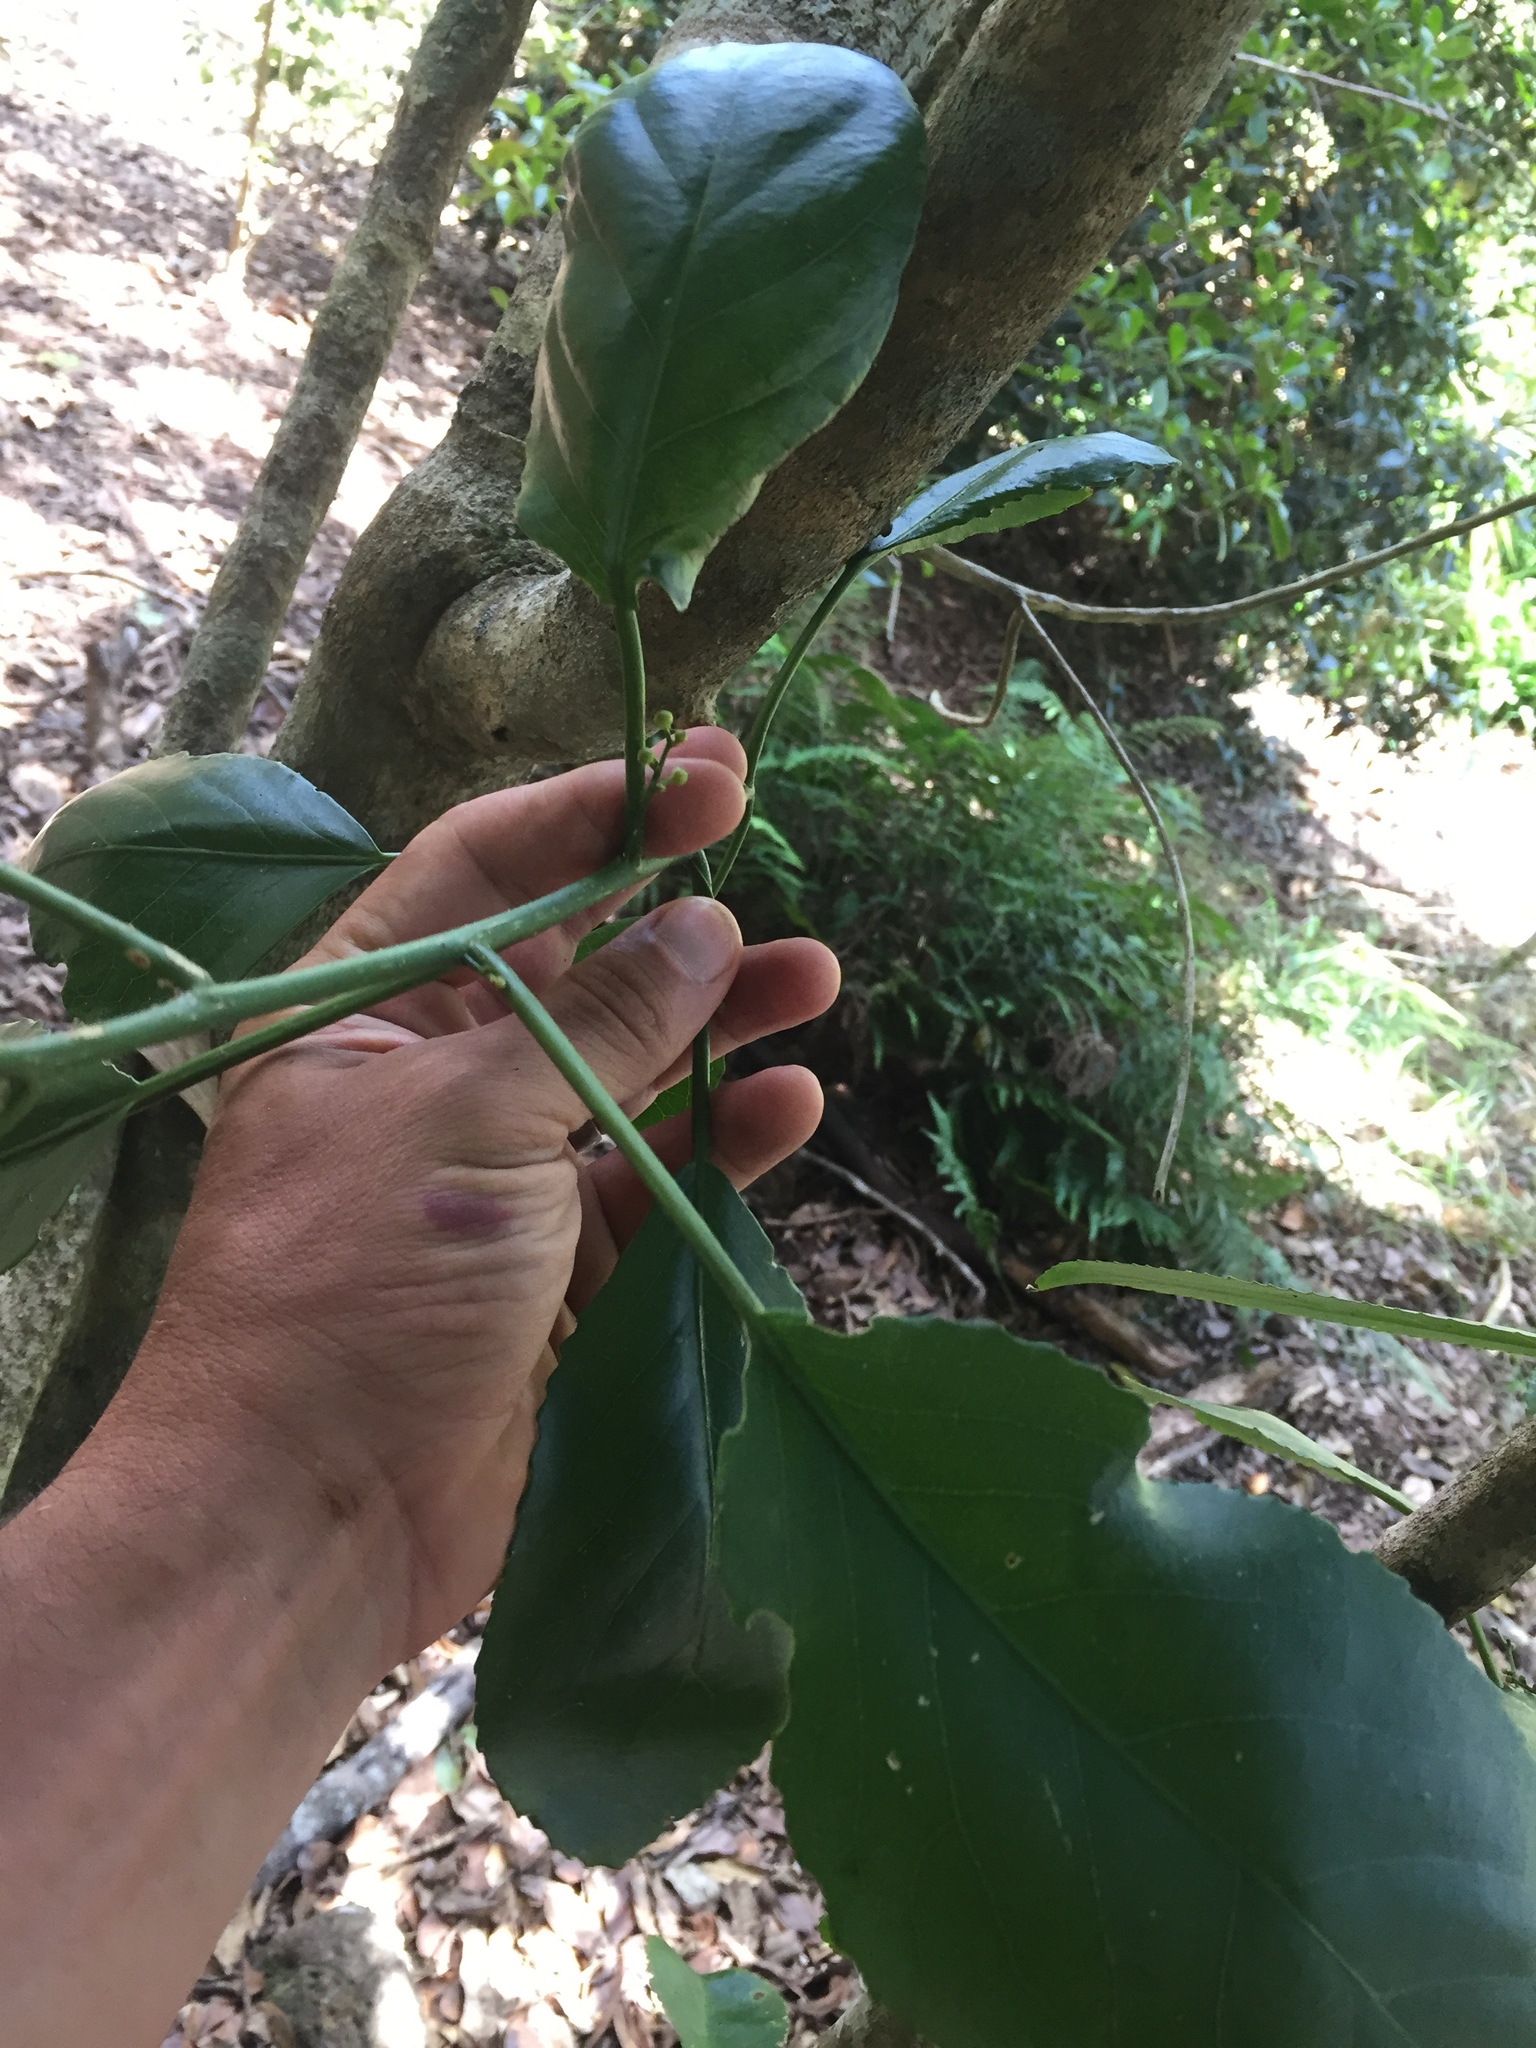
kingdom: Plantae
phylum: Tracheophyta
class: Magnoliopsida
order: Malpighiales
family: Euphorbiaceae
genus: Claoxylon
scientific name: Claoxylon sandwicense
